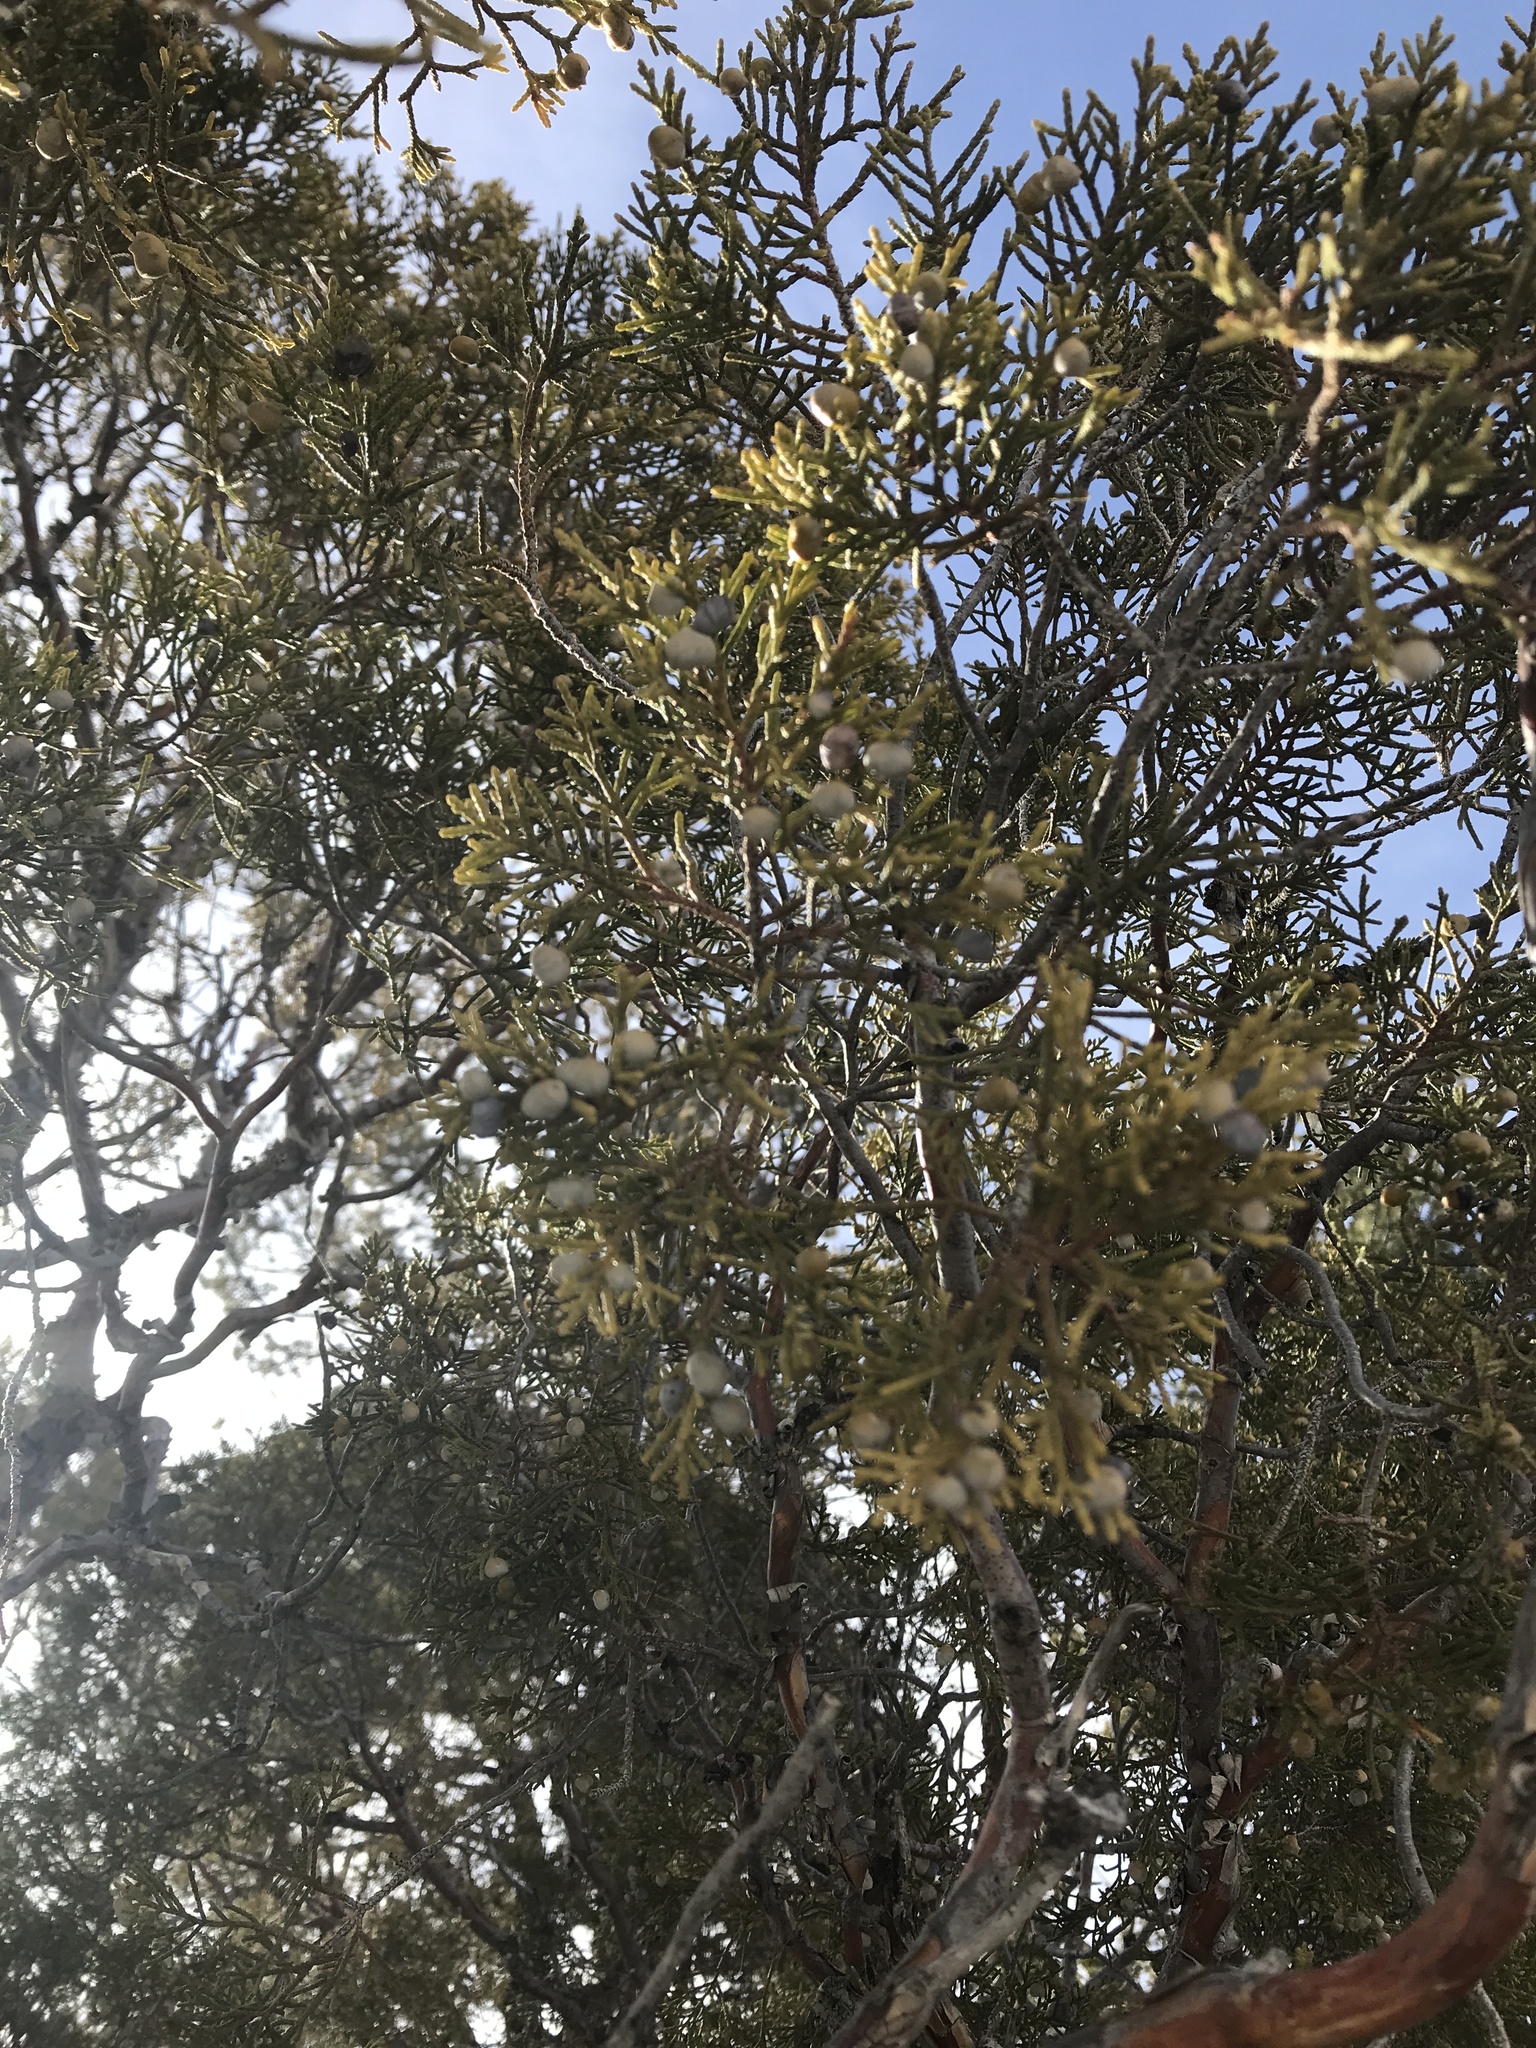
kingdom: Plantae
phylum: Tracheophyta
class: Pinopsida
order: Pinales
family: Cupressaceae
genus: Juniperus
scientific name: Juniperus scopulorum
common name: Rocky mountain juniper
